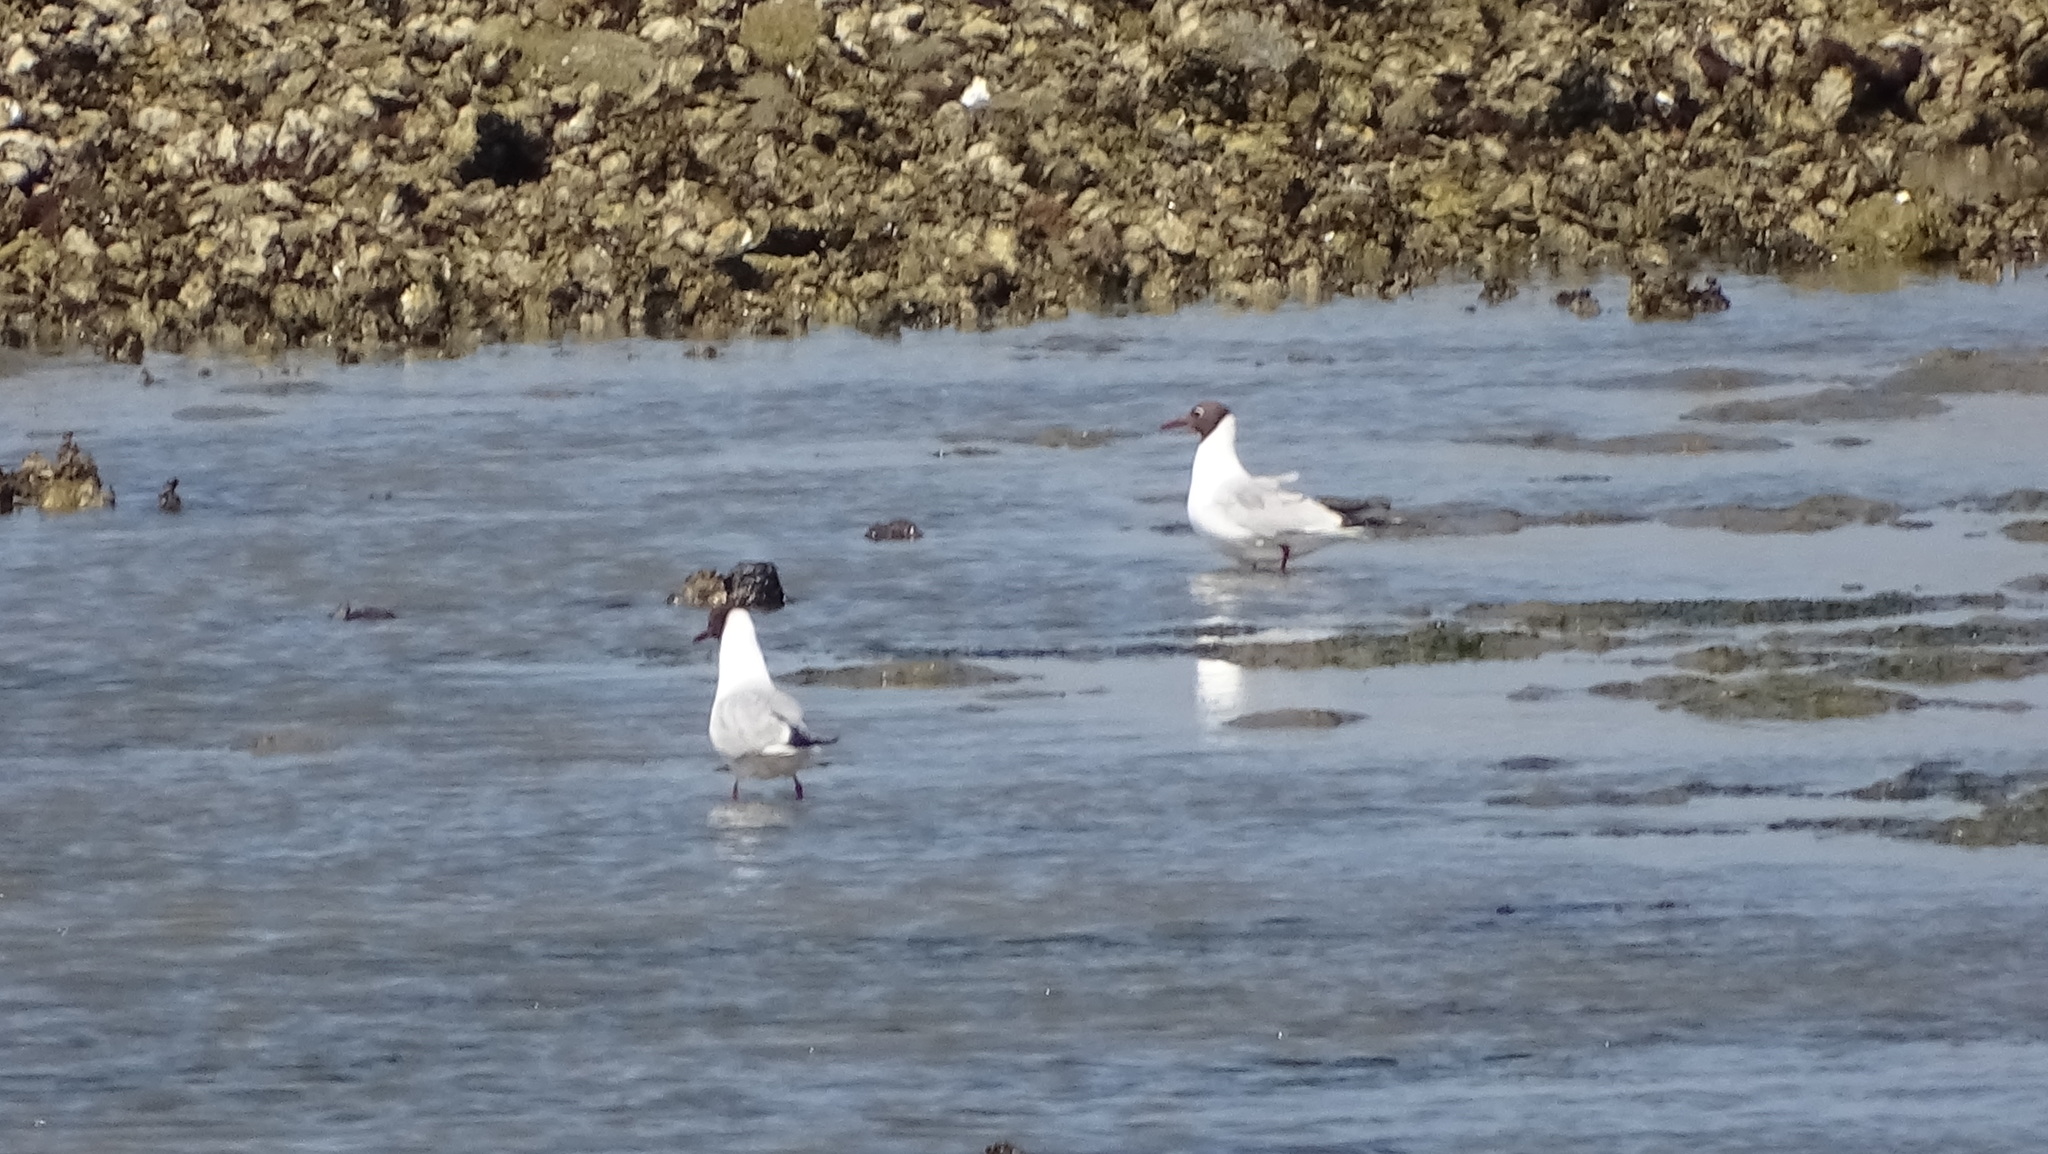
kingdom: Animalia
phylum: Chordata
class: Aves
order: Charadriiformes
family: Laridae
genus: Chroicocephalus
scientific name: Chroicocephalus ridibundus
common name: Black-headed gull
